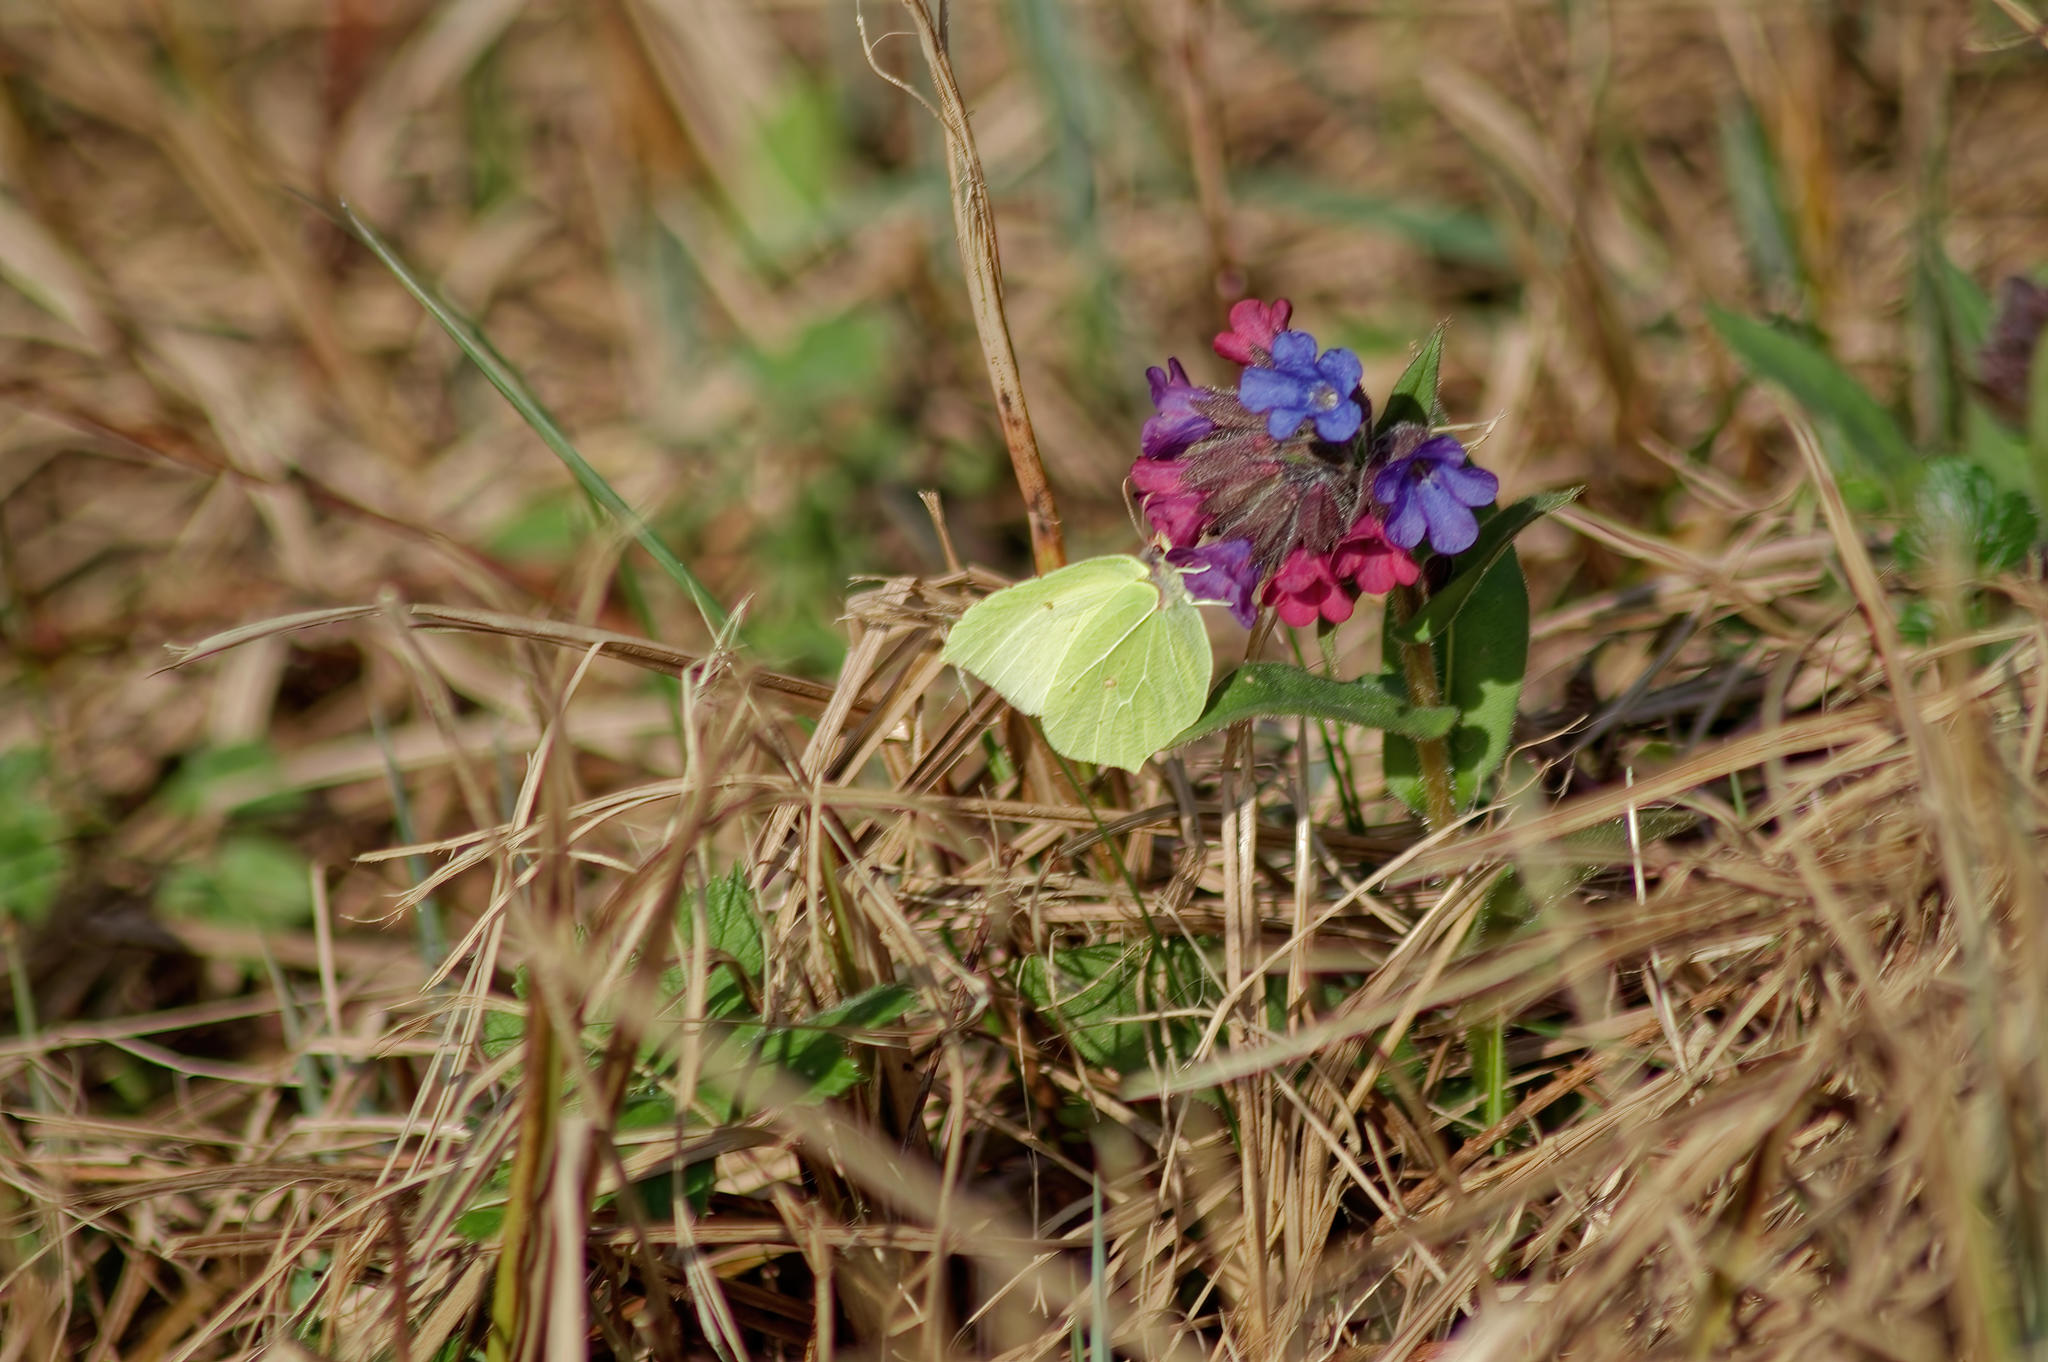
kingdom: Animalia
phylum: Arthropoda
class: Insecta
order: Lepidoptera
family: Pieridae
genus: Gonepteryx
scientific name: Gonepteryx rhamni
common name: Brimstone
